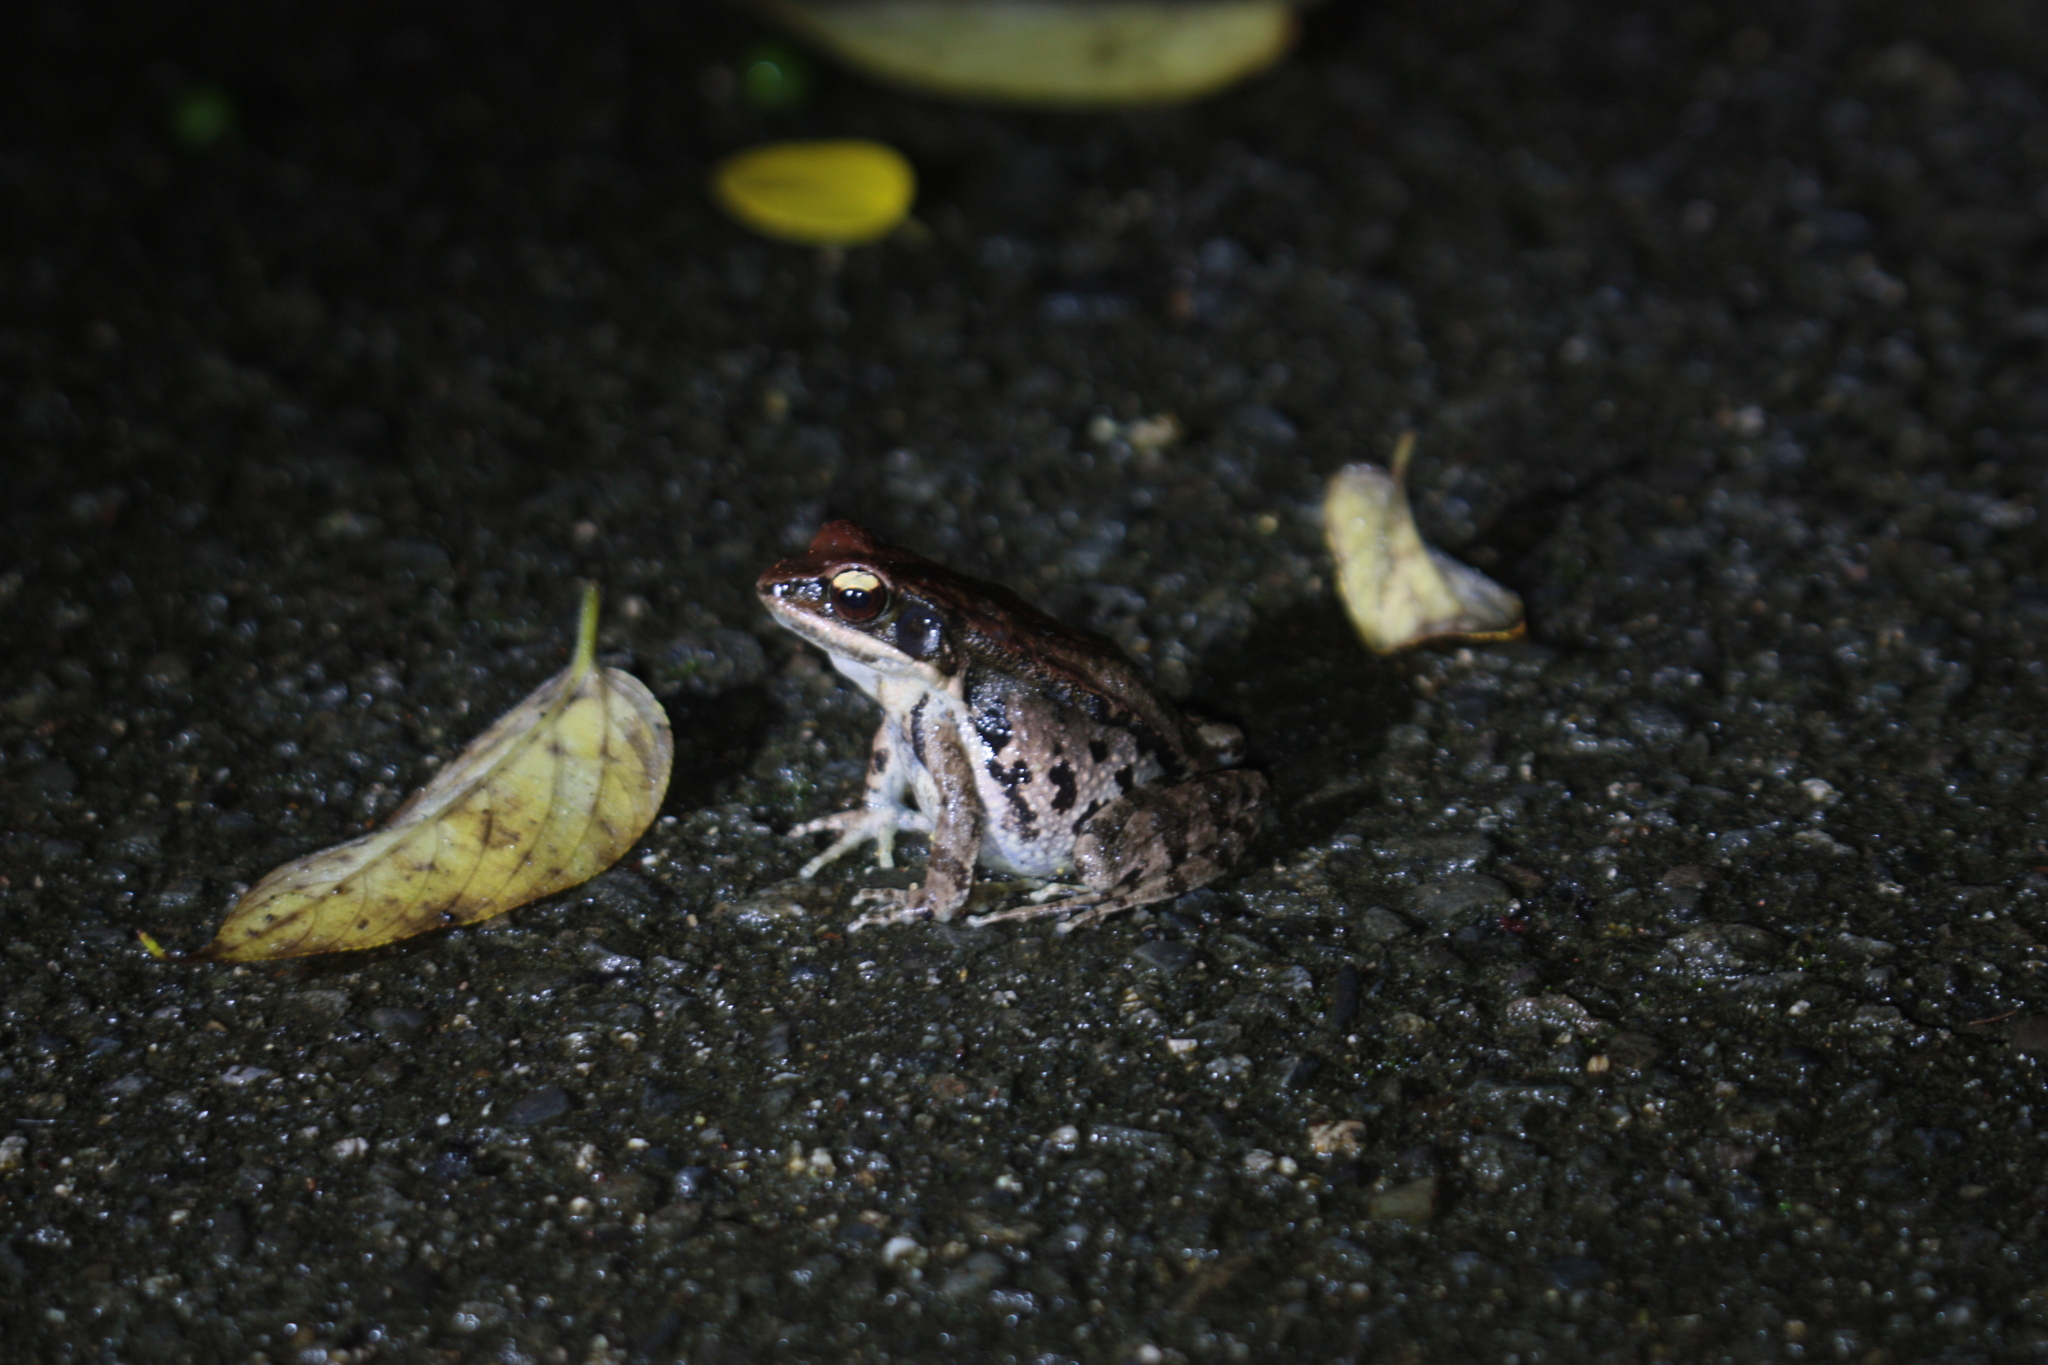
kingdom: Animalia
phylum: Chordata
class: Amphibia
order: Anura
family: Ranidae
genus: Hylarana
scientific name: Hylarana latouchii
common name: Broad-folded frog
